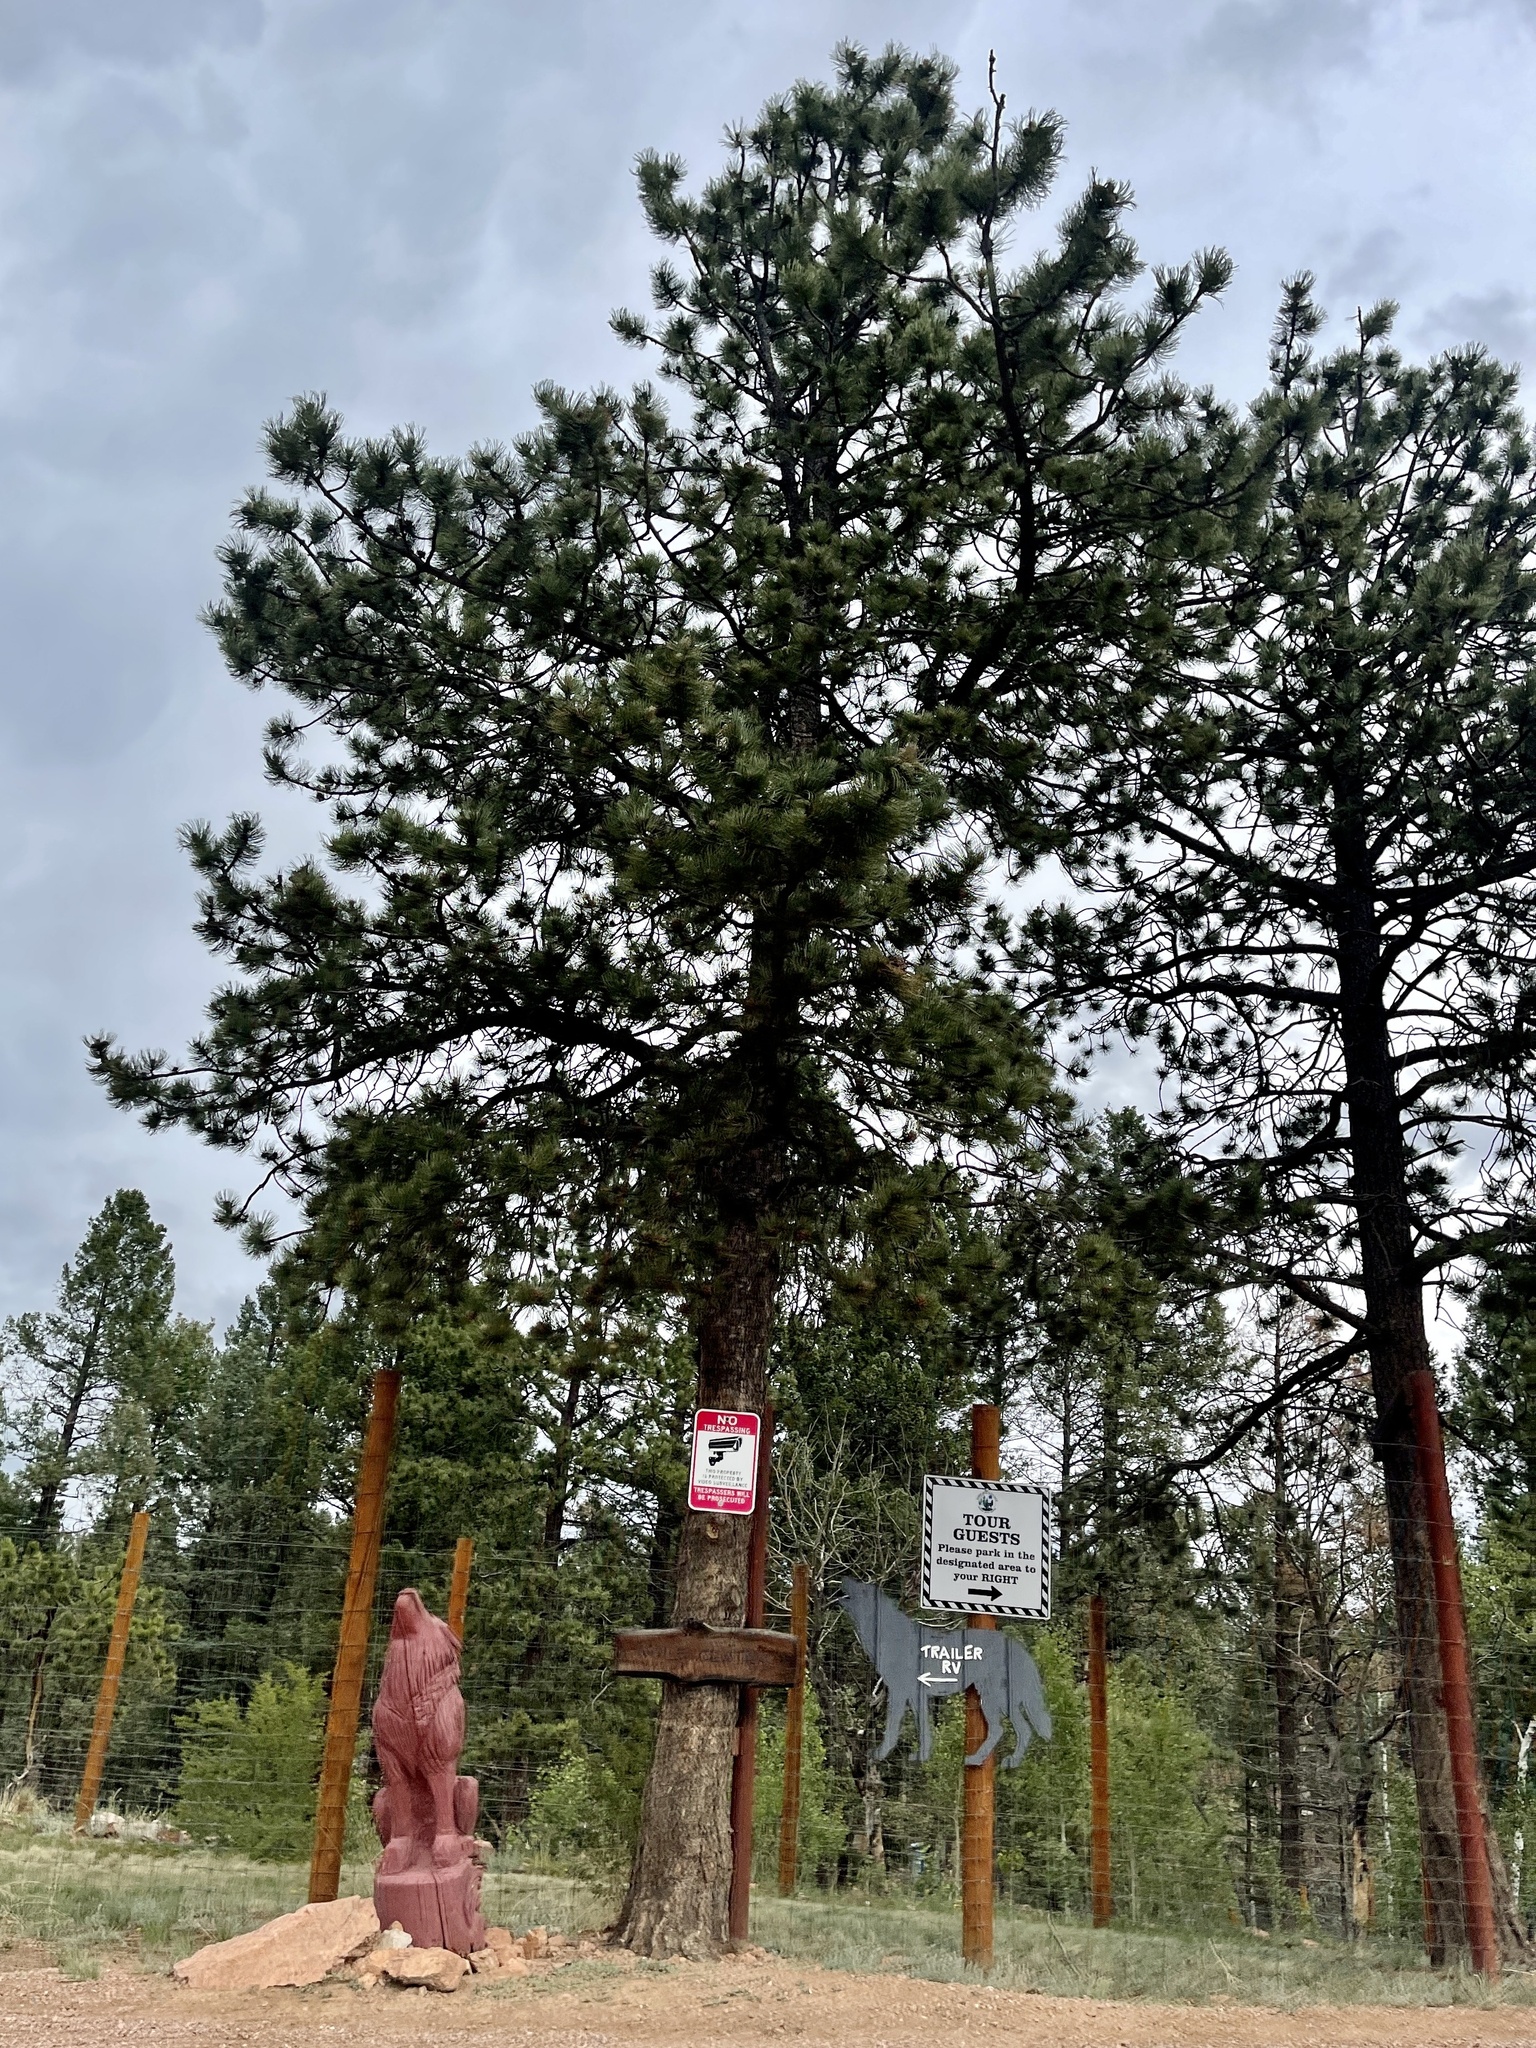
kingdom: Plantae
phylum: Tracheophyta
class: Pinopsida
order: Pinales
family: Pinaceae
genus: Pinus
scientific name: Pinus ponderosa
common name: Western yellow-pine
